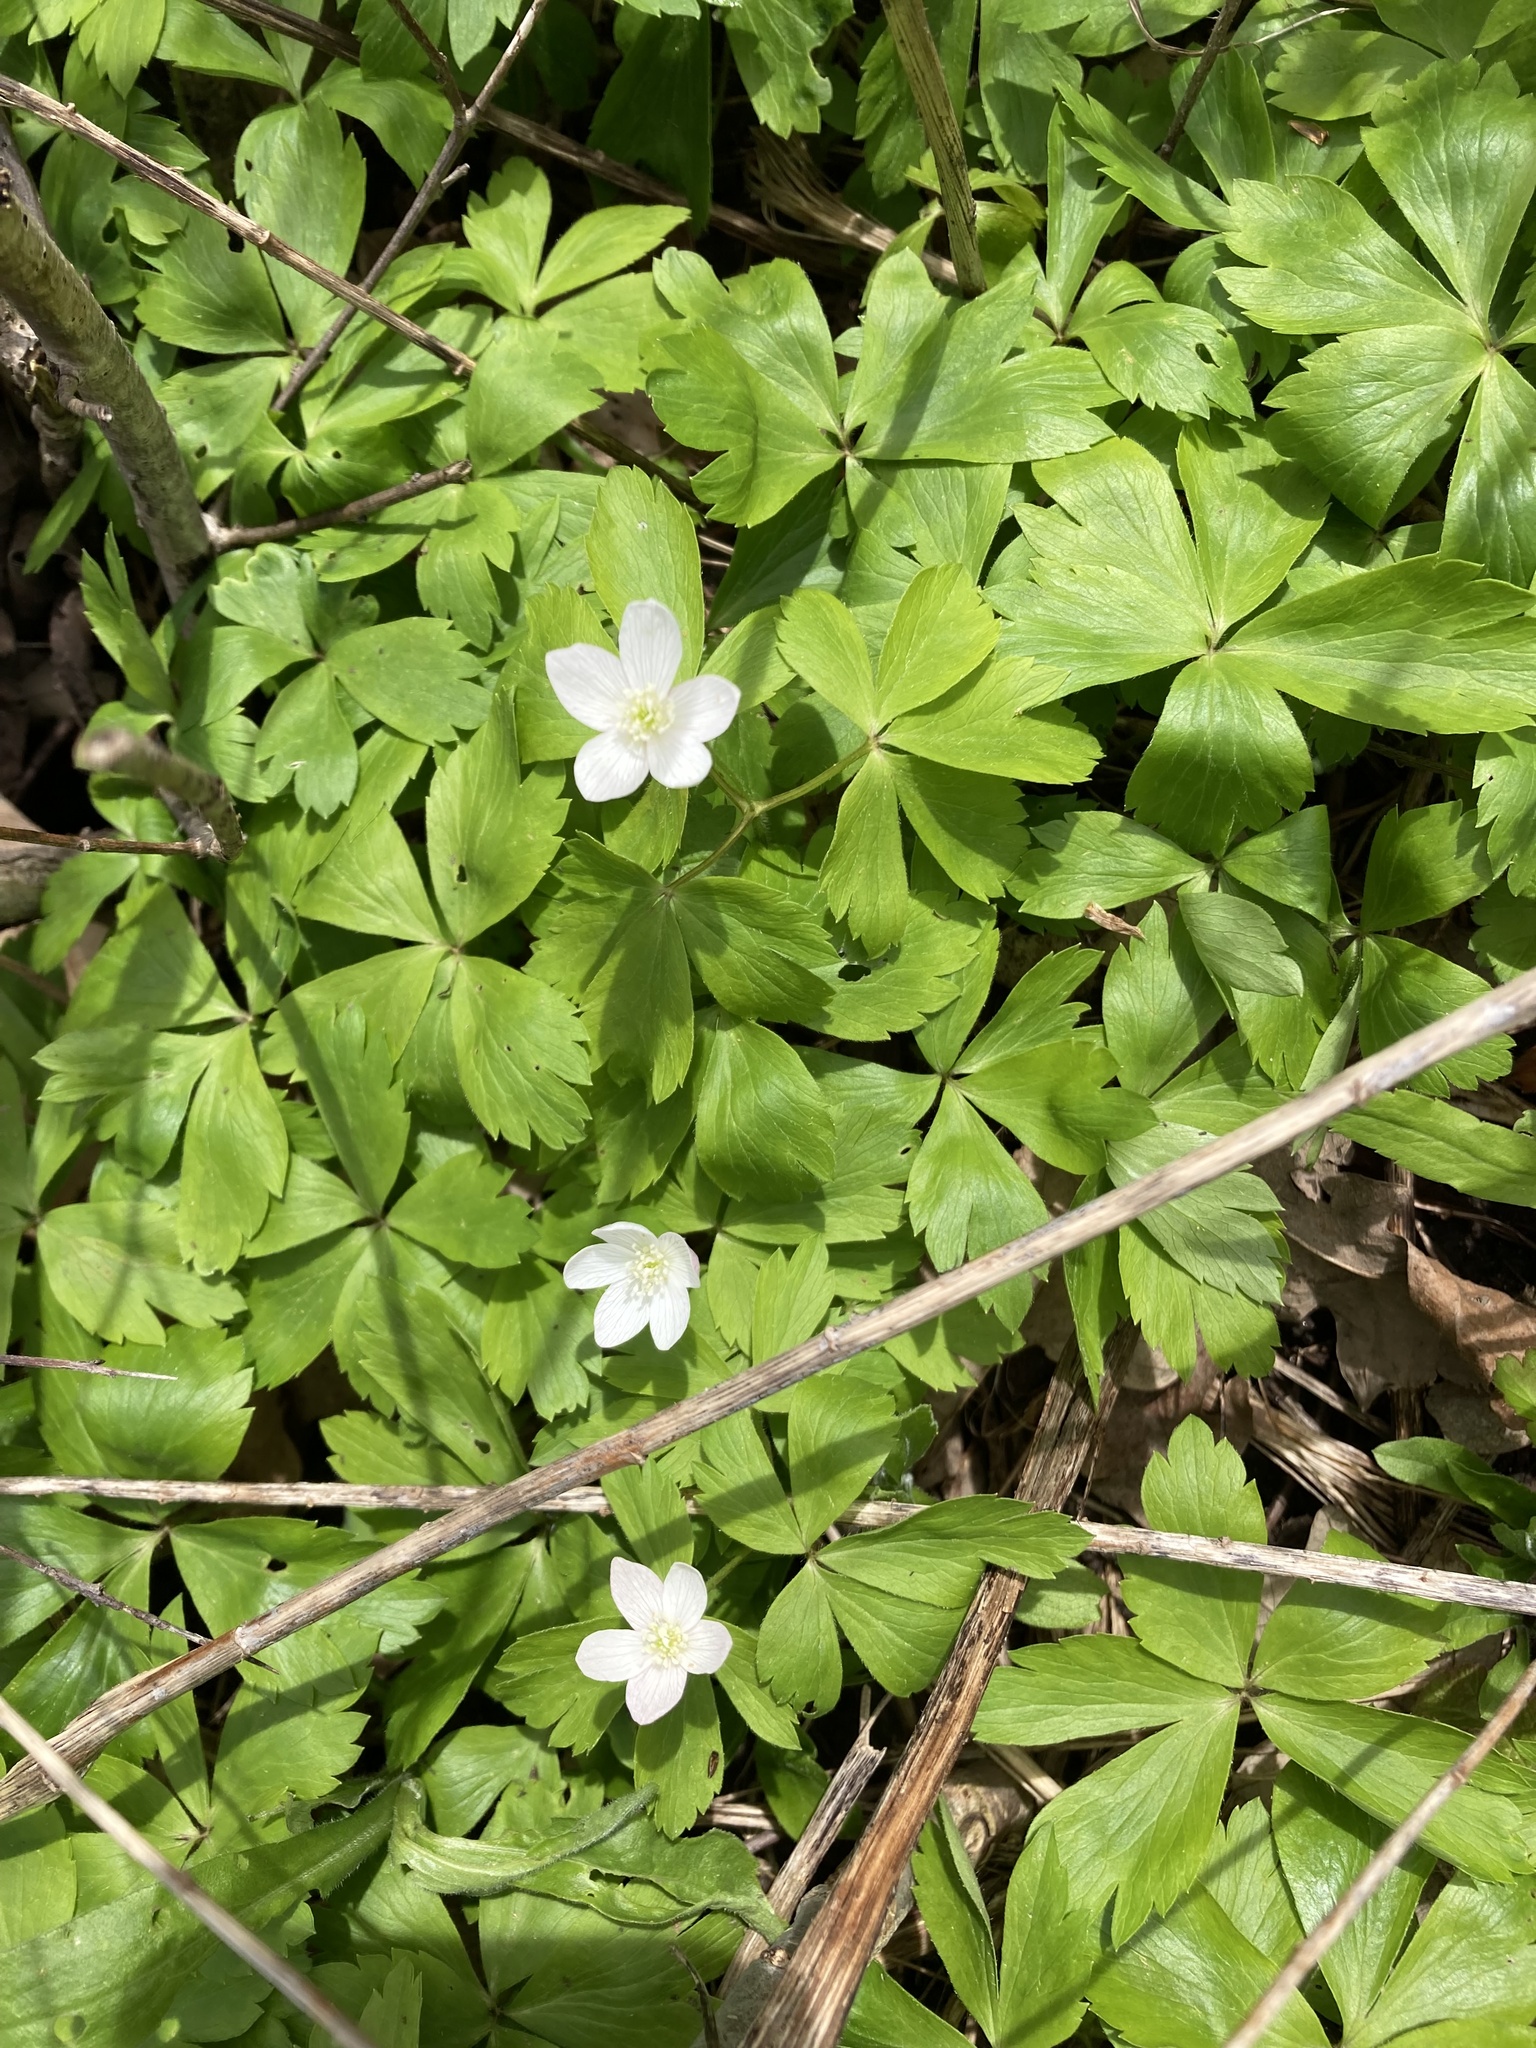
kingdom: Plantae
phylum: Tracheophyta
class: Magnoliopsida
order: Ranunculales
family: Ranunculaceae
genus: Anemone
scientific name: Anemone quinquefolia
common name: Wood anemone
